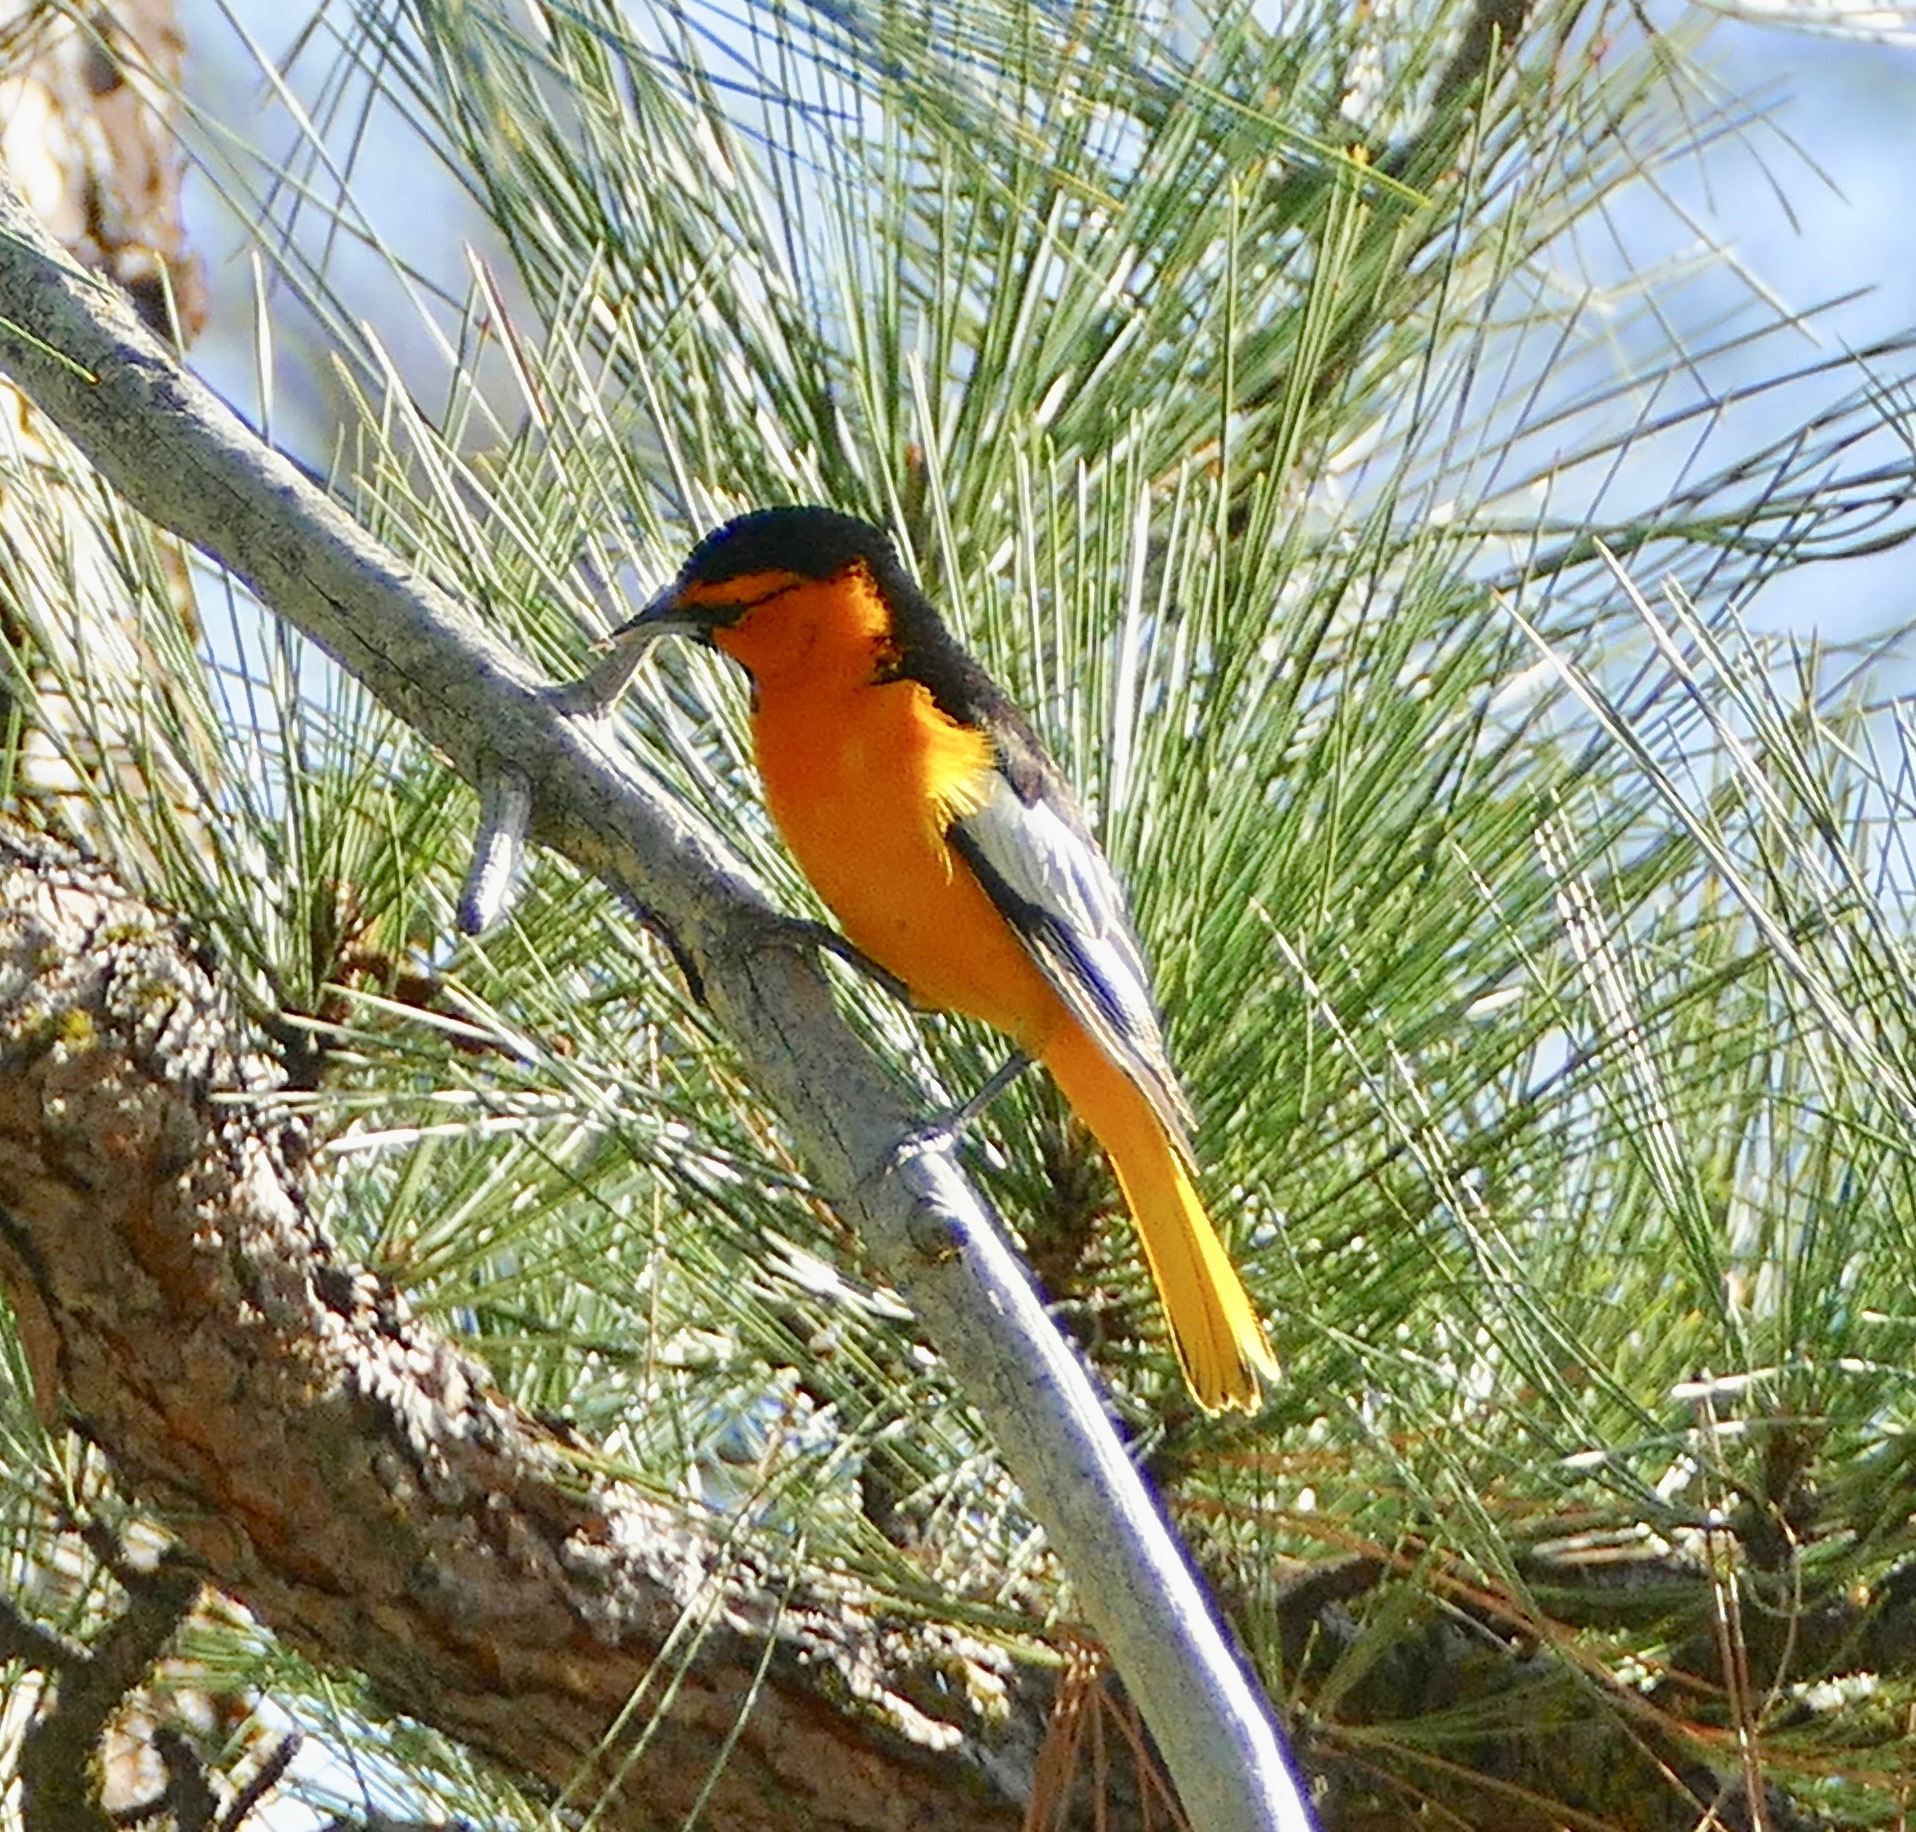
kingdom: Animalia
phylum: Chordata
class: Aves
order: Passeriformes
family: Icteridae
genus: Icterus
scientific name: Icterus bullockii
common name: Bullock's oriole
